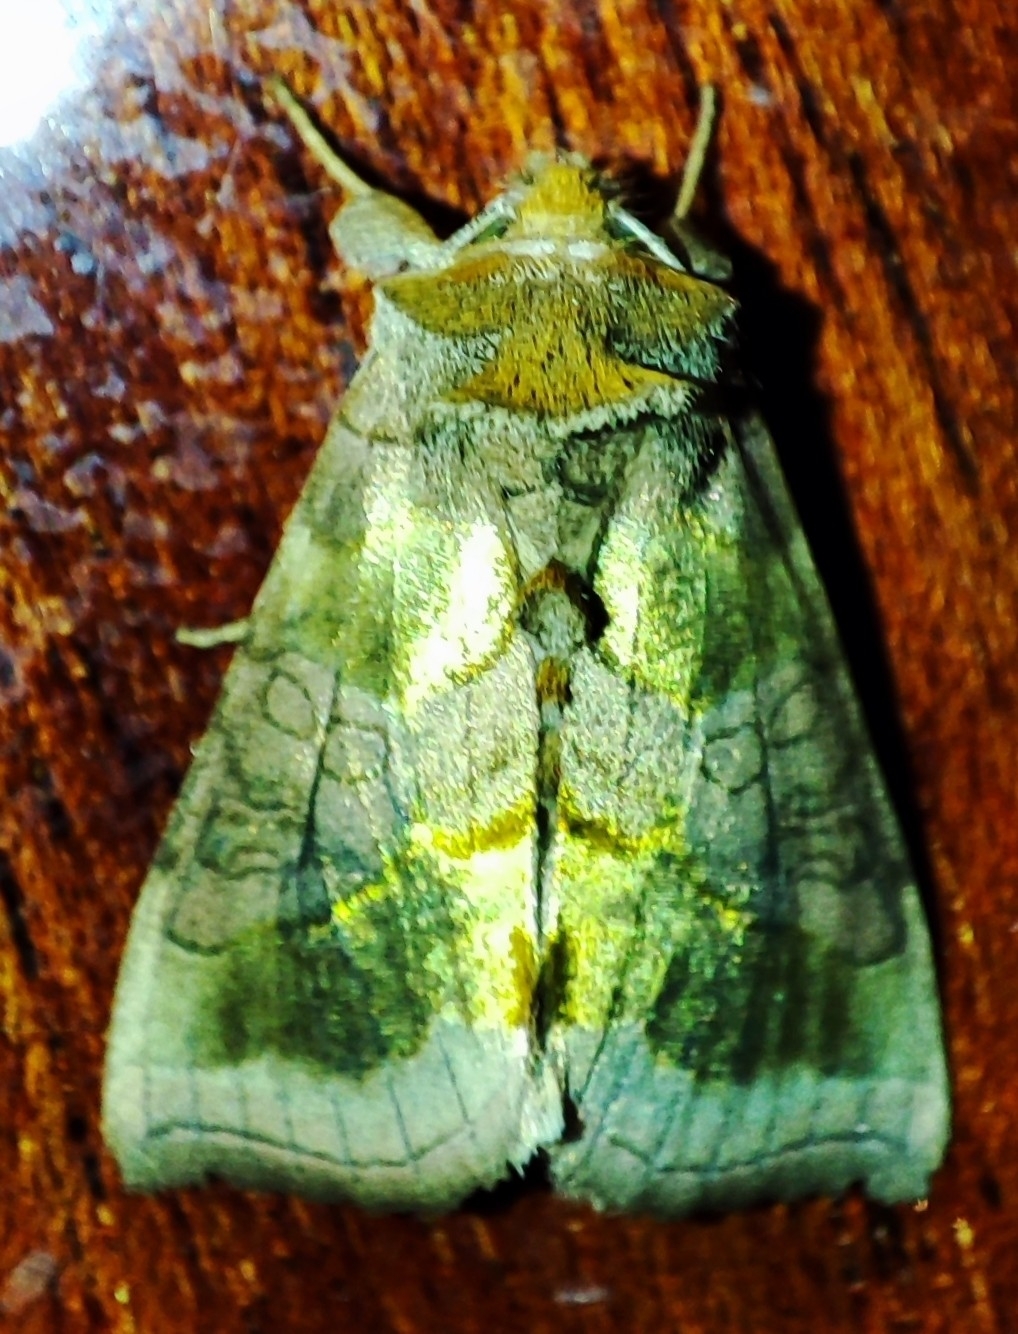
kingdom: Animalia
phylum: Arthropoda
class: Insecta
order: Lepidoptera
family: Noctuidae
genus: Diachrysia
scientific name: Diachrysia chrysitis
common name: Burnished brass
